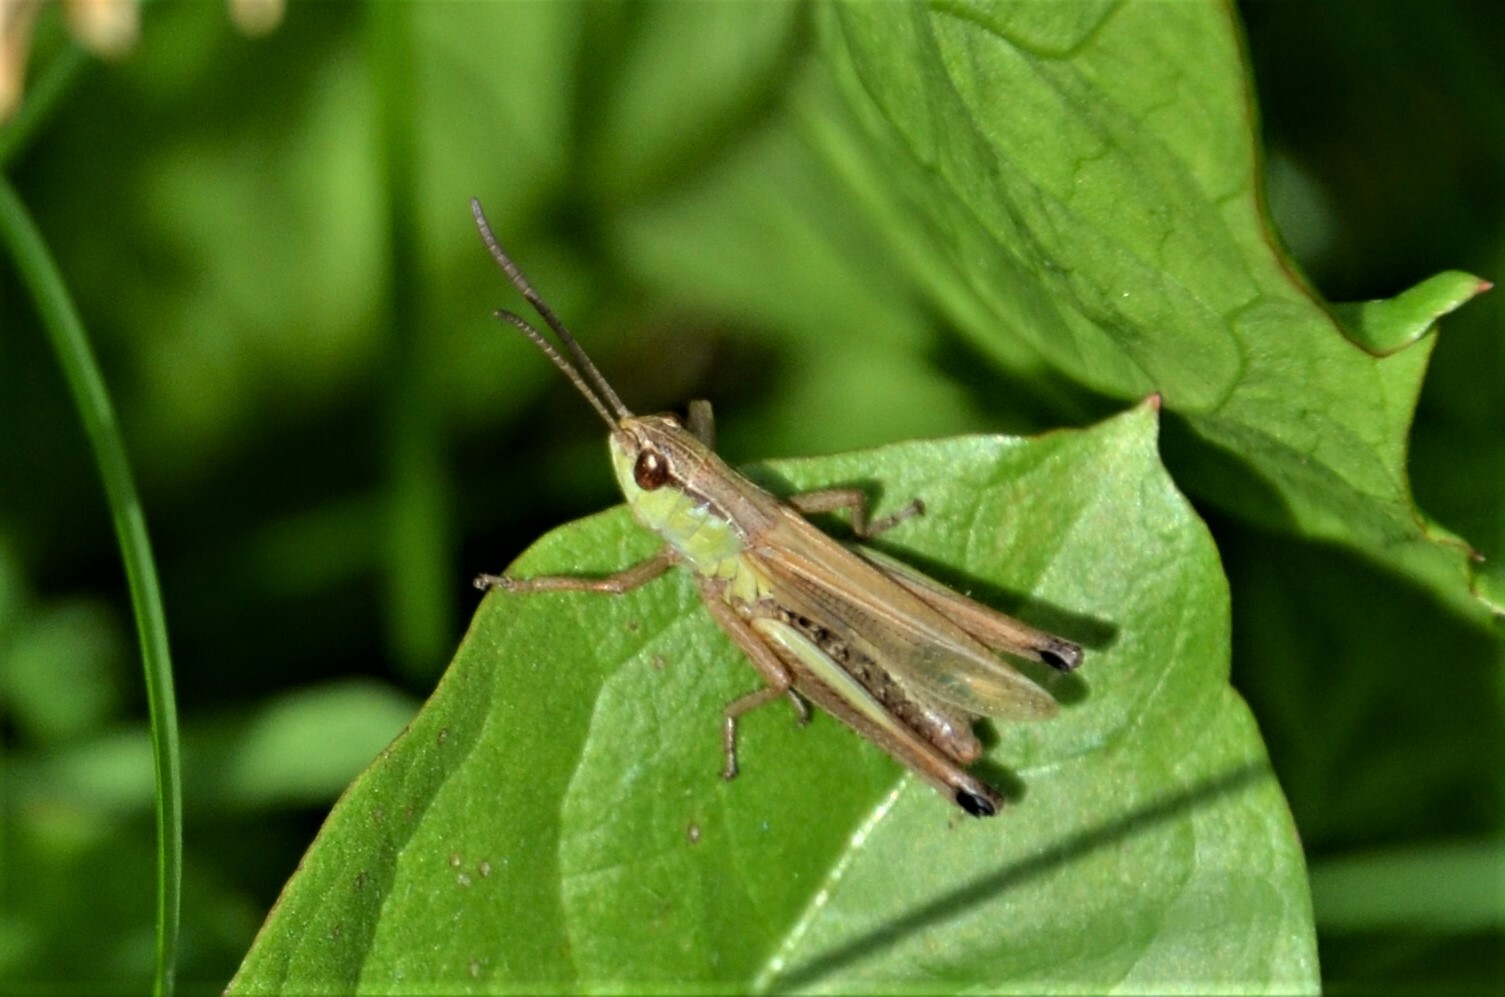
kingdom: Animalia
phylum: Arthropoda
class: Insecta
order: Orthoptera
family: Acrididae
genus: Pseudochorthippus
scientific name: Pseudochorthippus parallelus
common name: Meadow grasshopper
